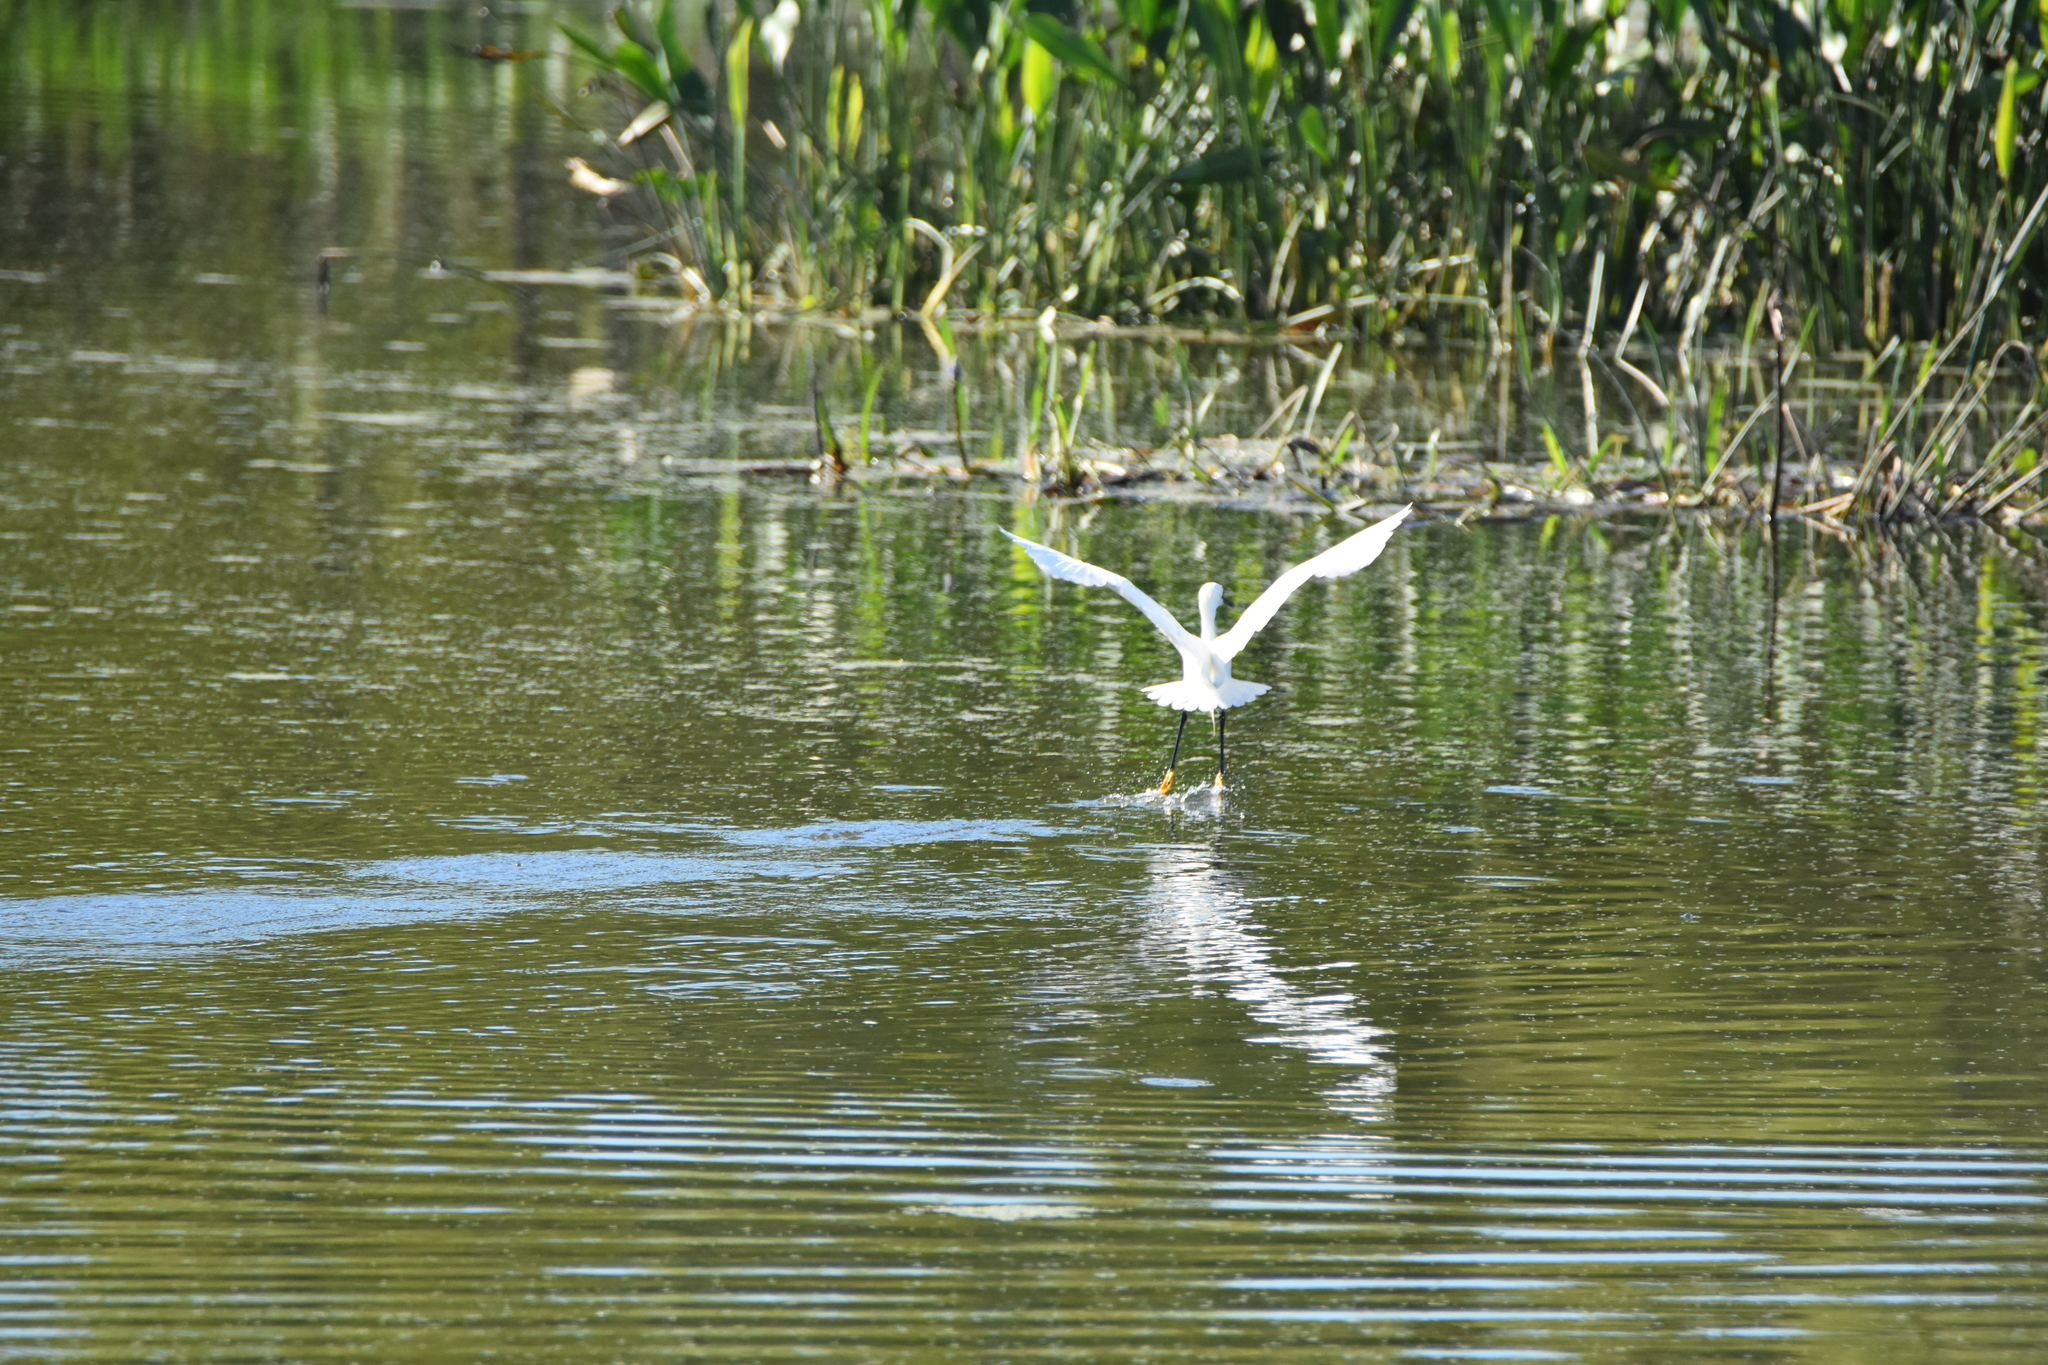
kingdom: Animalia
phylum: Chordata
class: Aves
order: Pelecaniformes
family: Ardeidae
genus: Egretta
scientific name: Egretta thula
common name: Snowy egret
